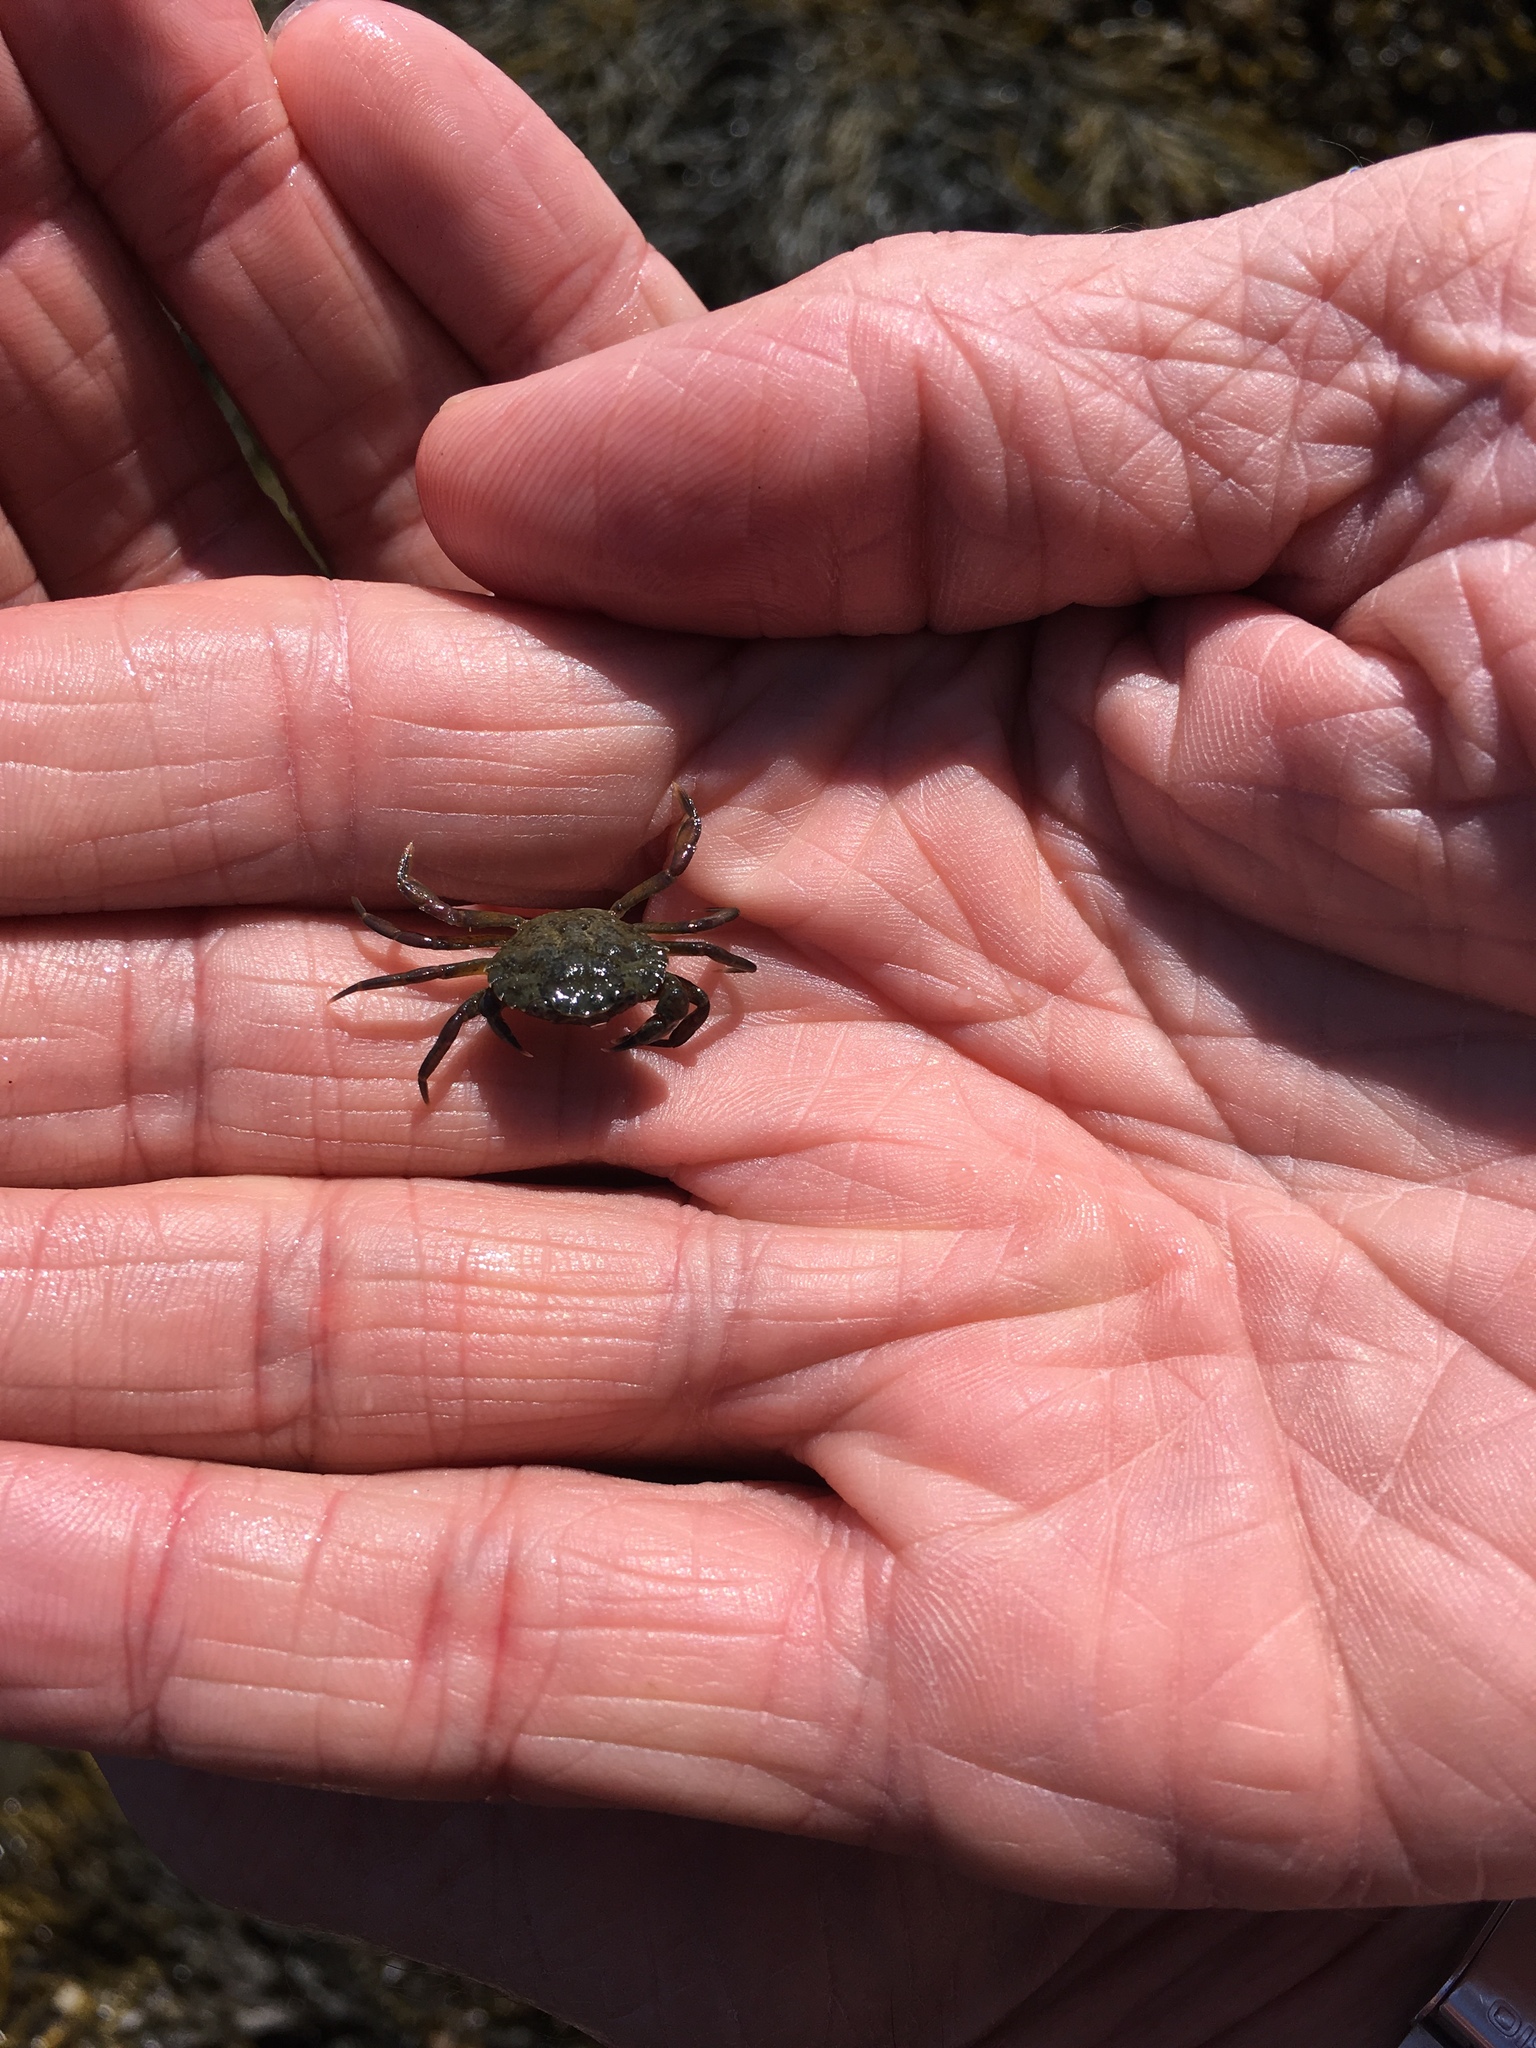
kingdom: Animalia
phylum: Arthropoda
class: Malacostraca
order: Decapoda
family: Carcinidae
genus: Carcinus
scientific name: Carcinus maenas
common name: European green crab
